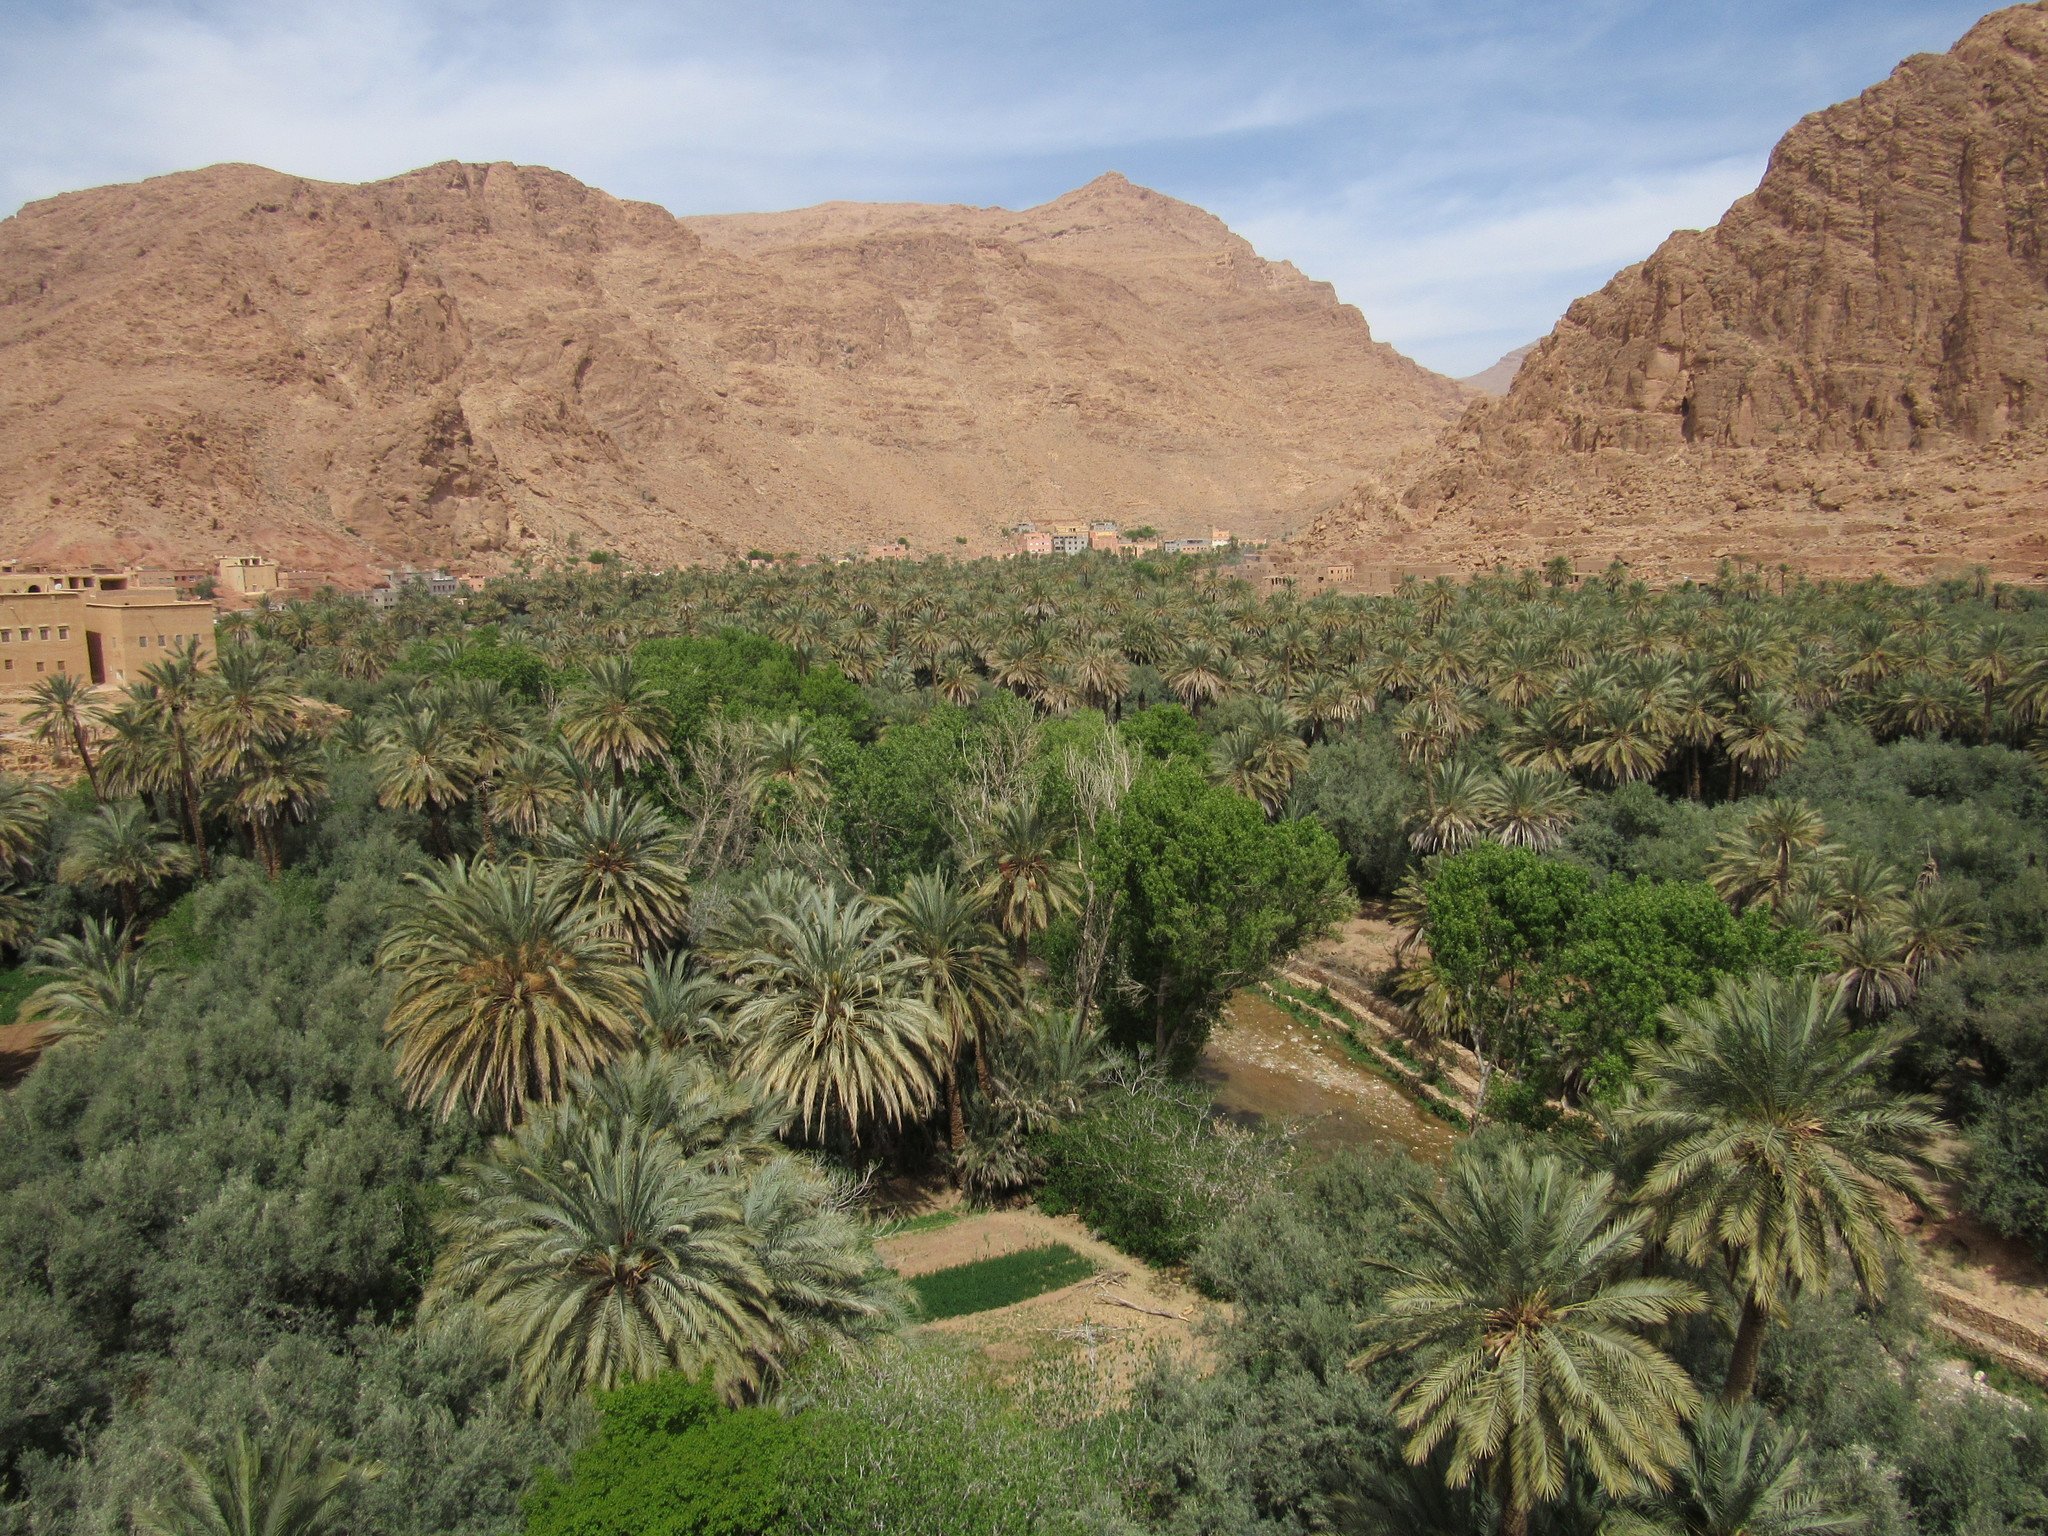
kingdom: Plantae
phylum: Tracheophyta
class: Liliopsida
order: Arecales
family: Arecaceae
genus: Phoenix
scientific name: Phoenix dactylifera
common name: Date palm
